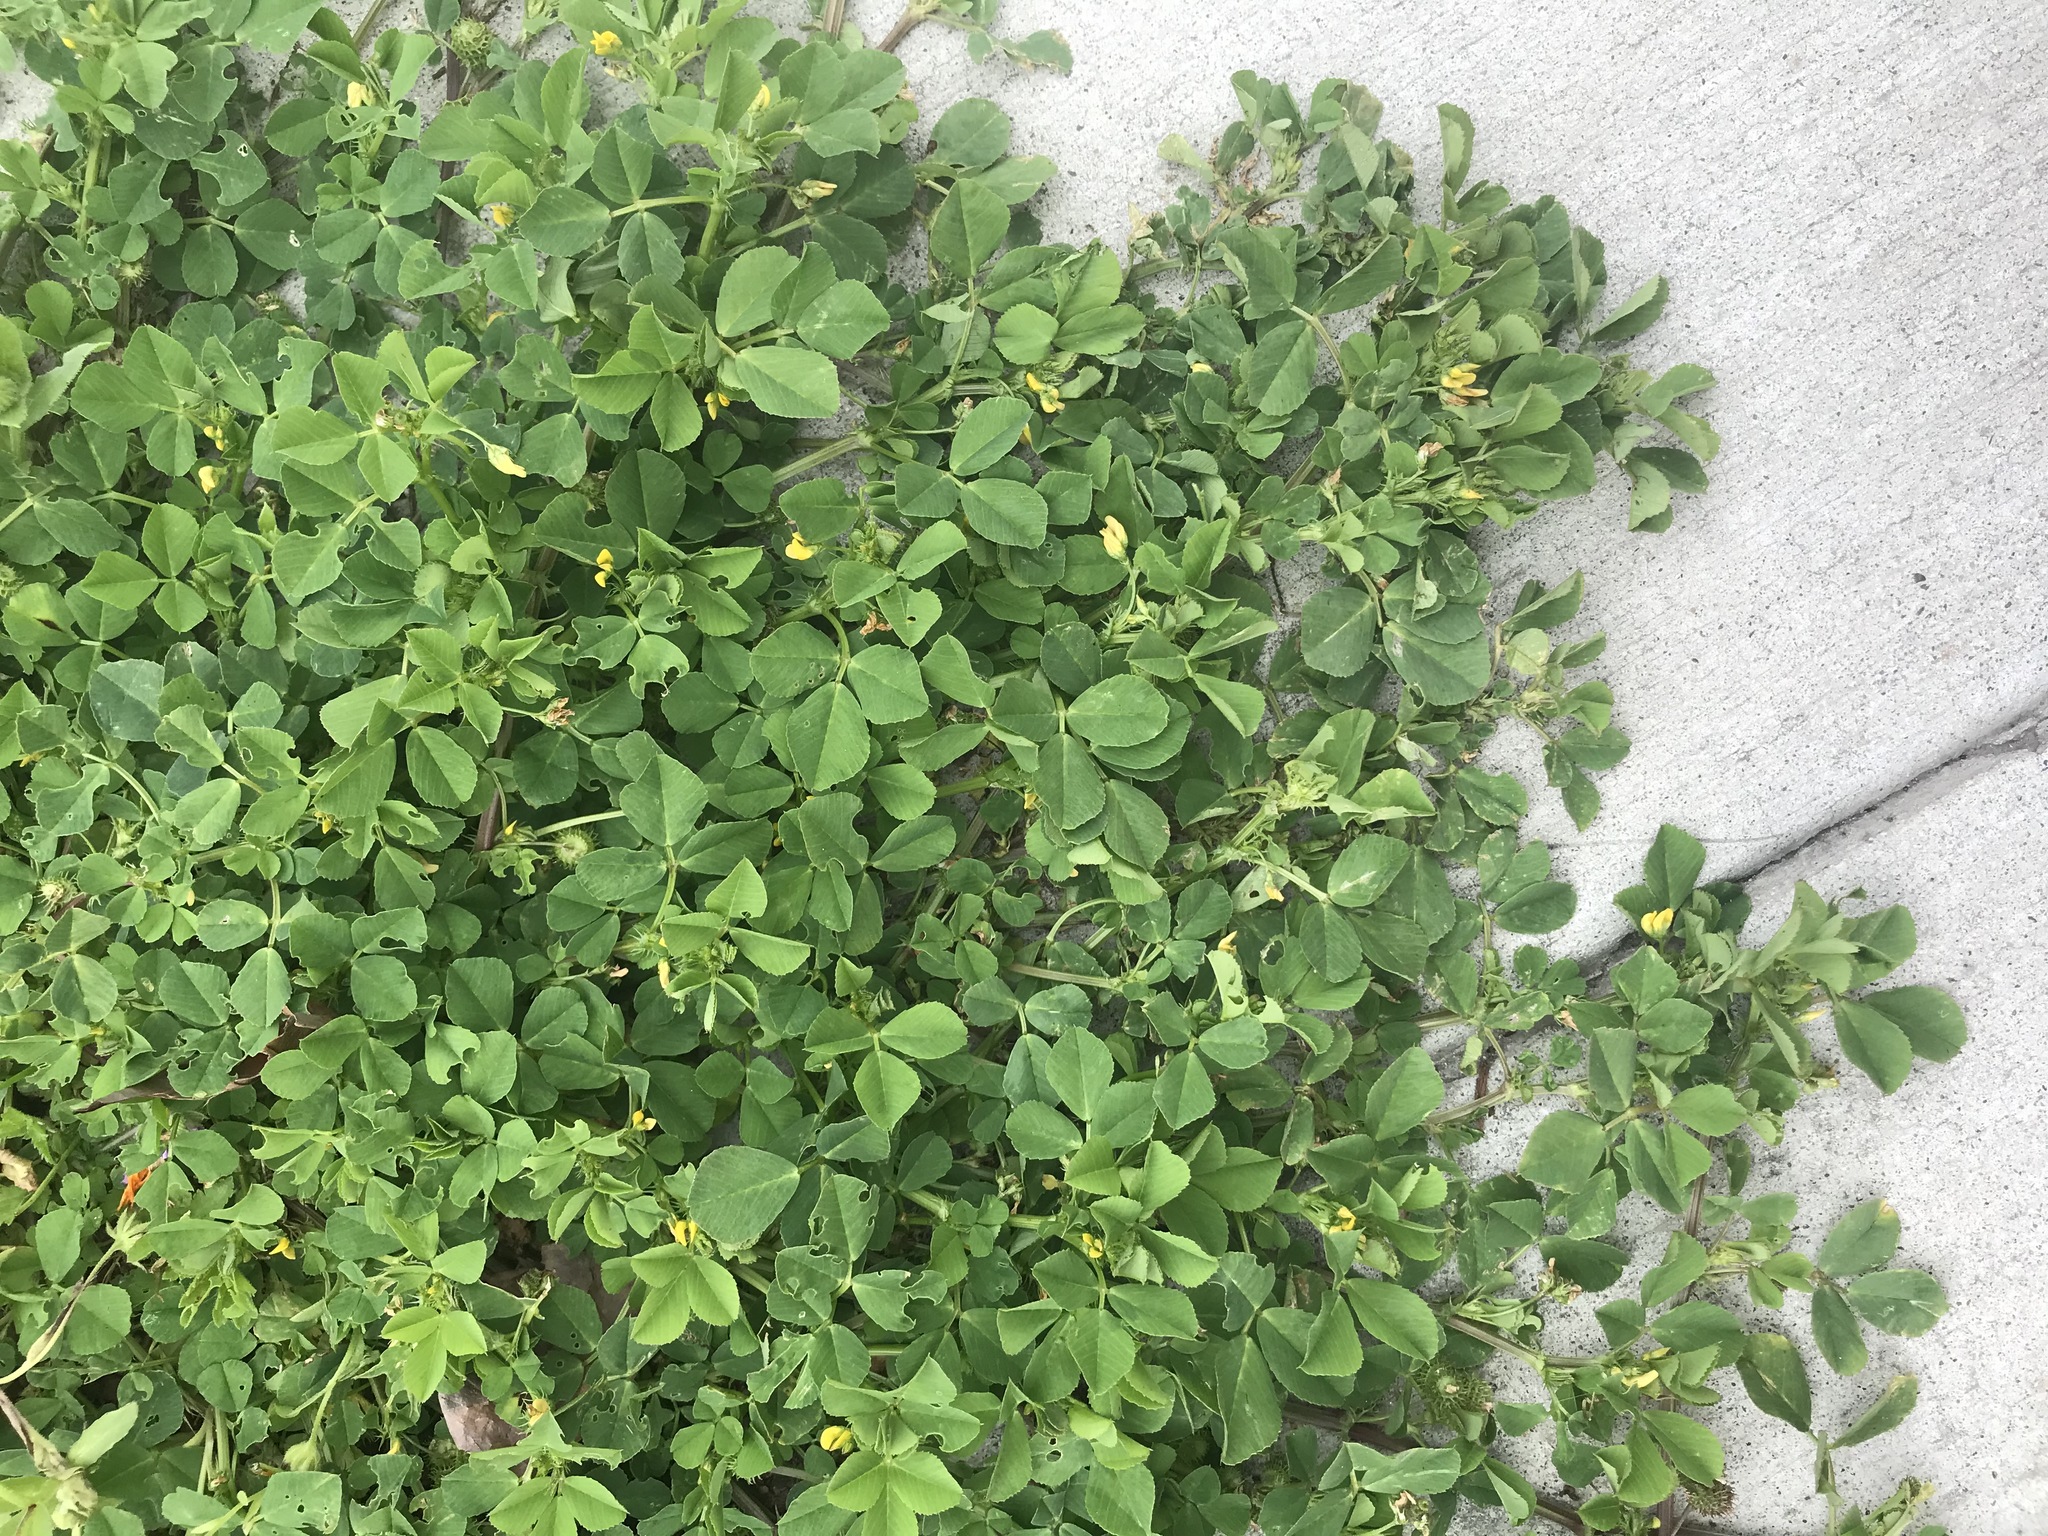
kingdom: Plantae
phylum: Tracheophyta
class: Magnoliopsida
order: Fabales
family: Fabaceae
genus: Medicago
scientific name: Medicago polymorpha
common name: Burclover
